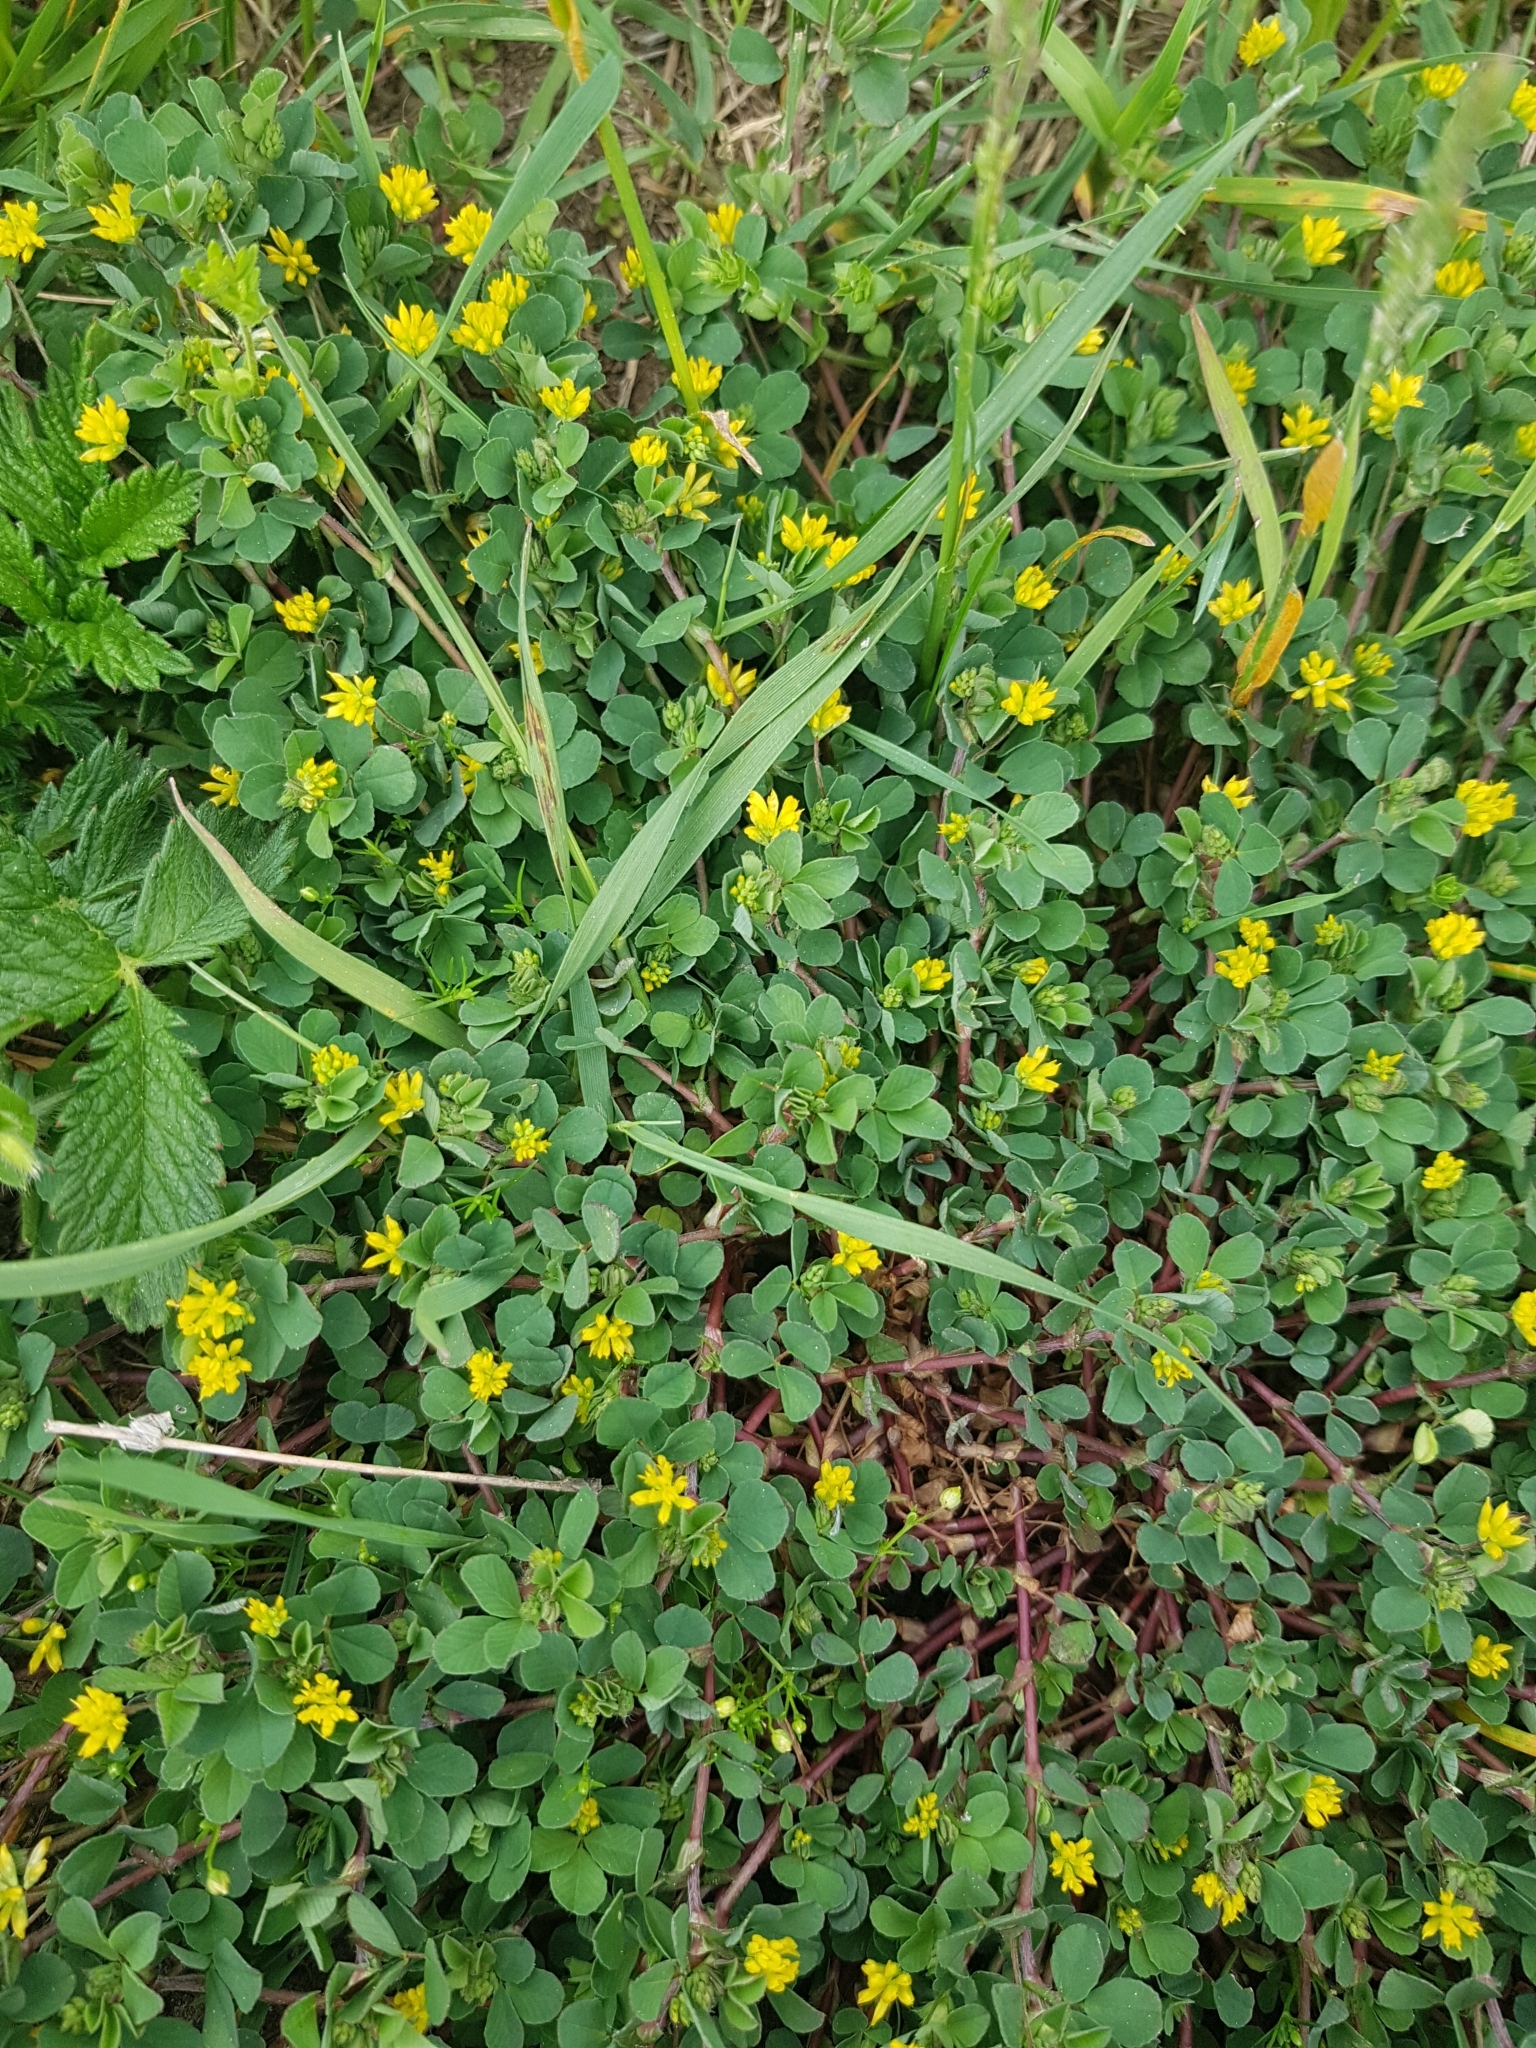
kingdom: Plantae
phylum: Tracheophyta
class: Magnoliopsida
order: Fabales
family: Fabaceae
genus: Trifolium
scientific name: Trifolium dubium
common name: Suckling clover
